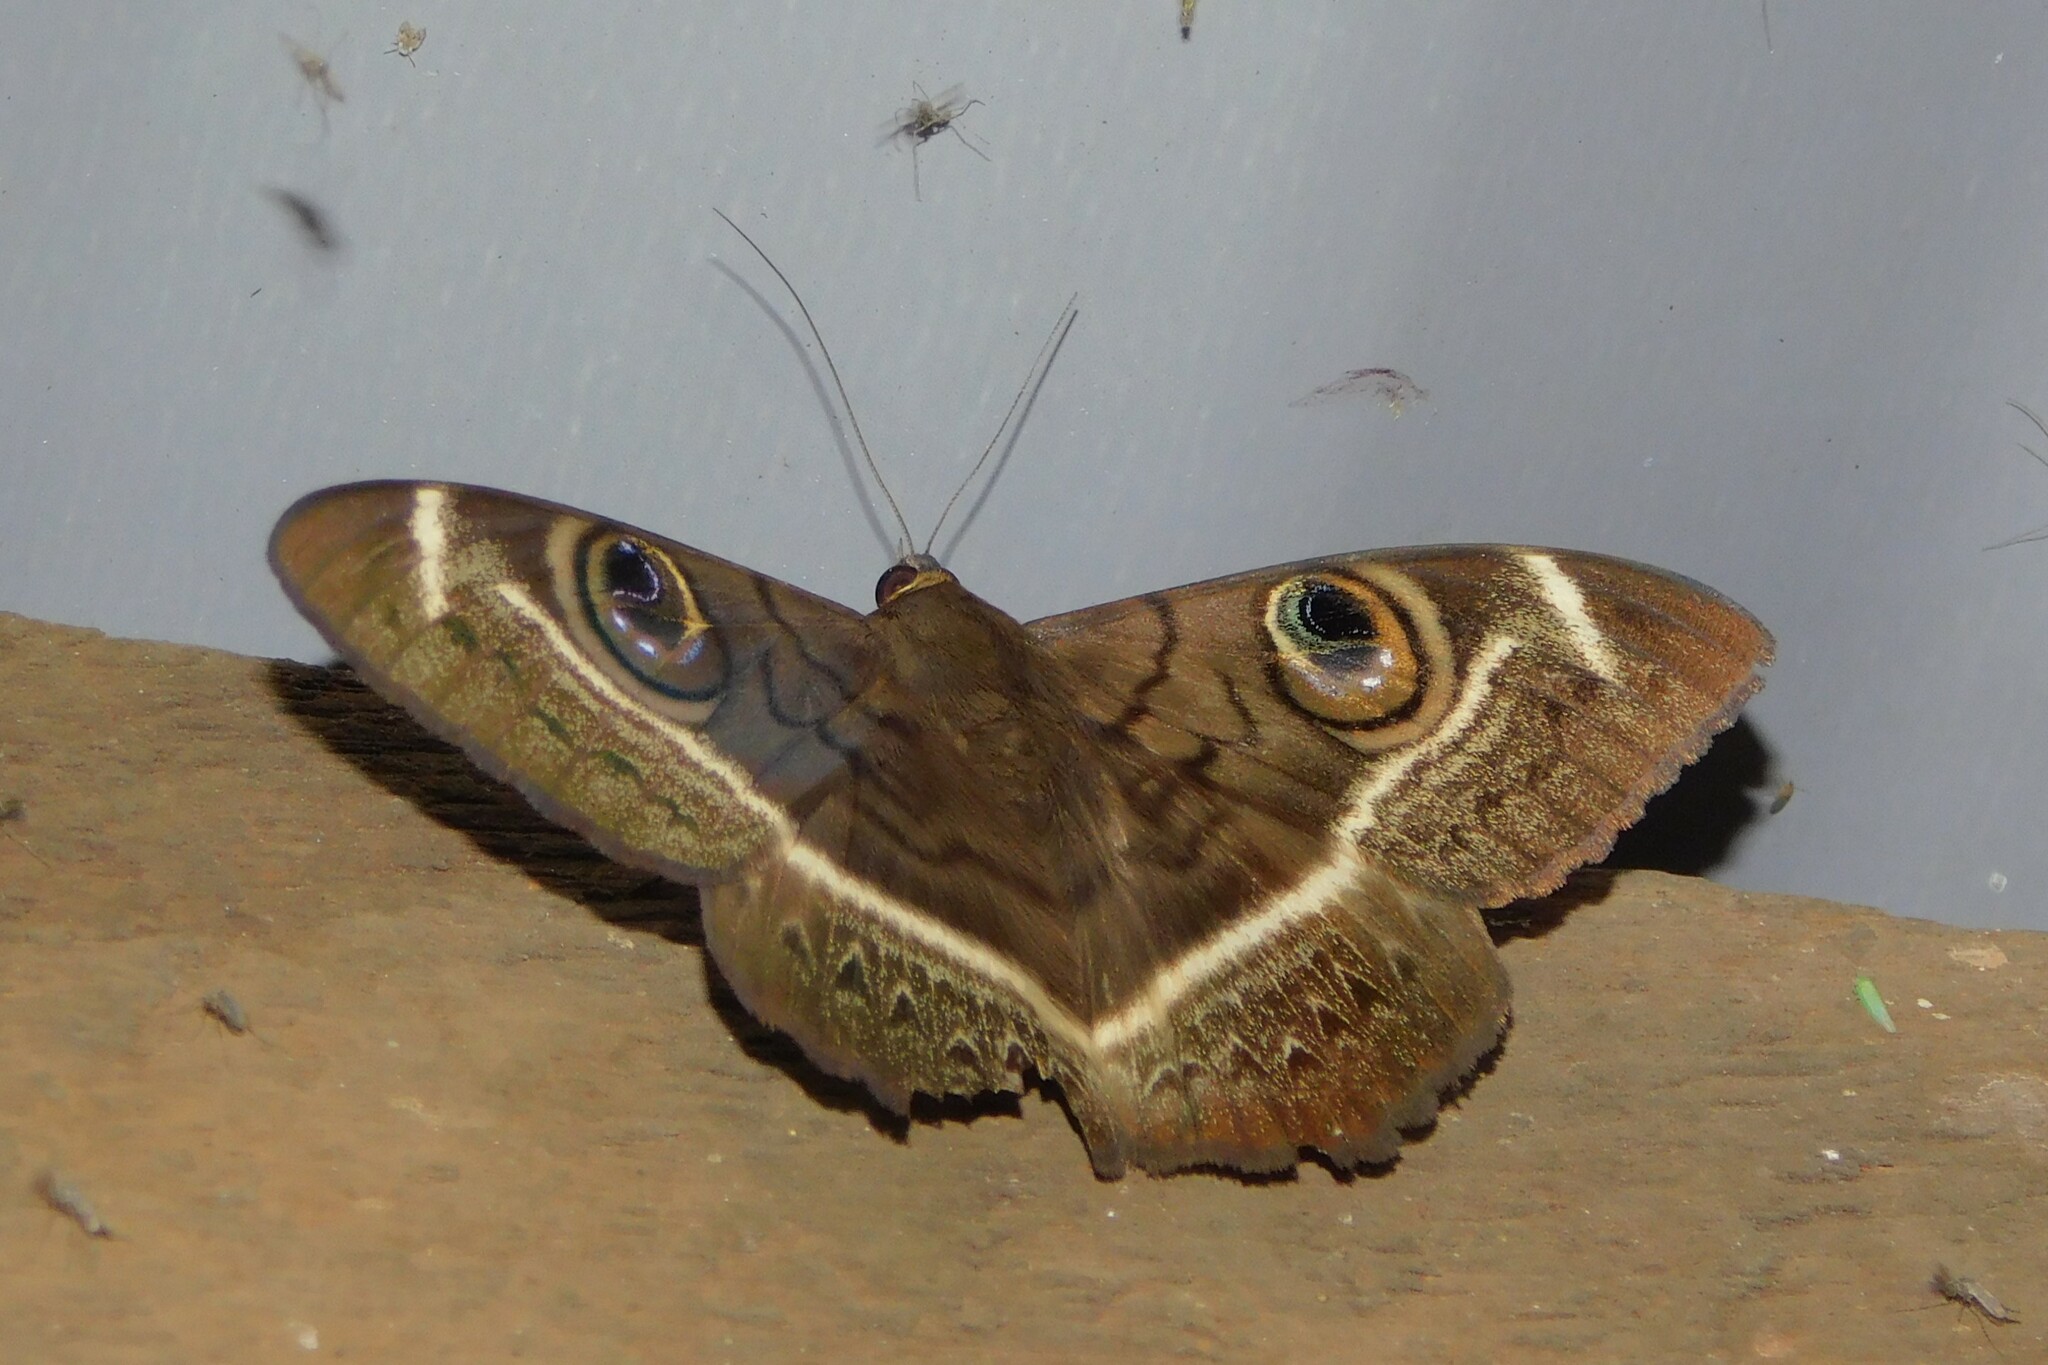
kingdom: Animalia
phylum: Arthropoda
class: Insecta
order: Lepidoptera
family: Erebidae
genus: Cyligramma
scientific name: Cyligramma latona
